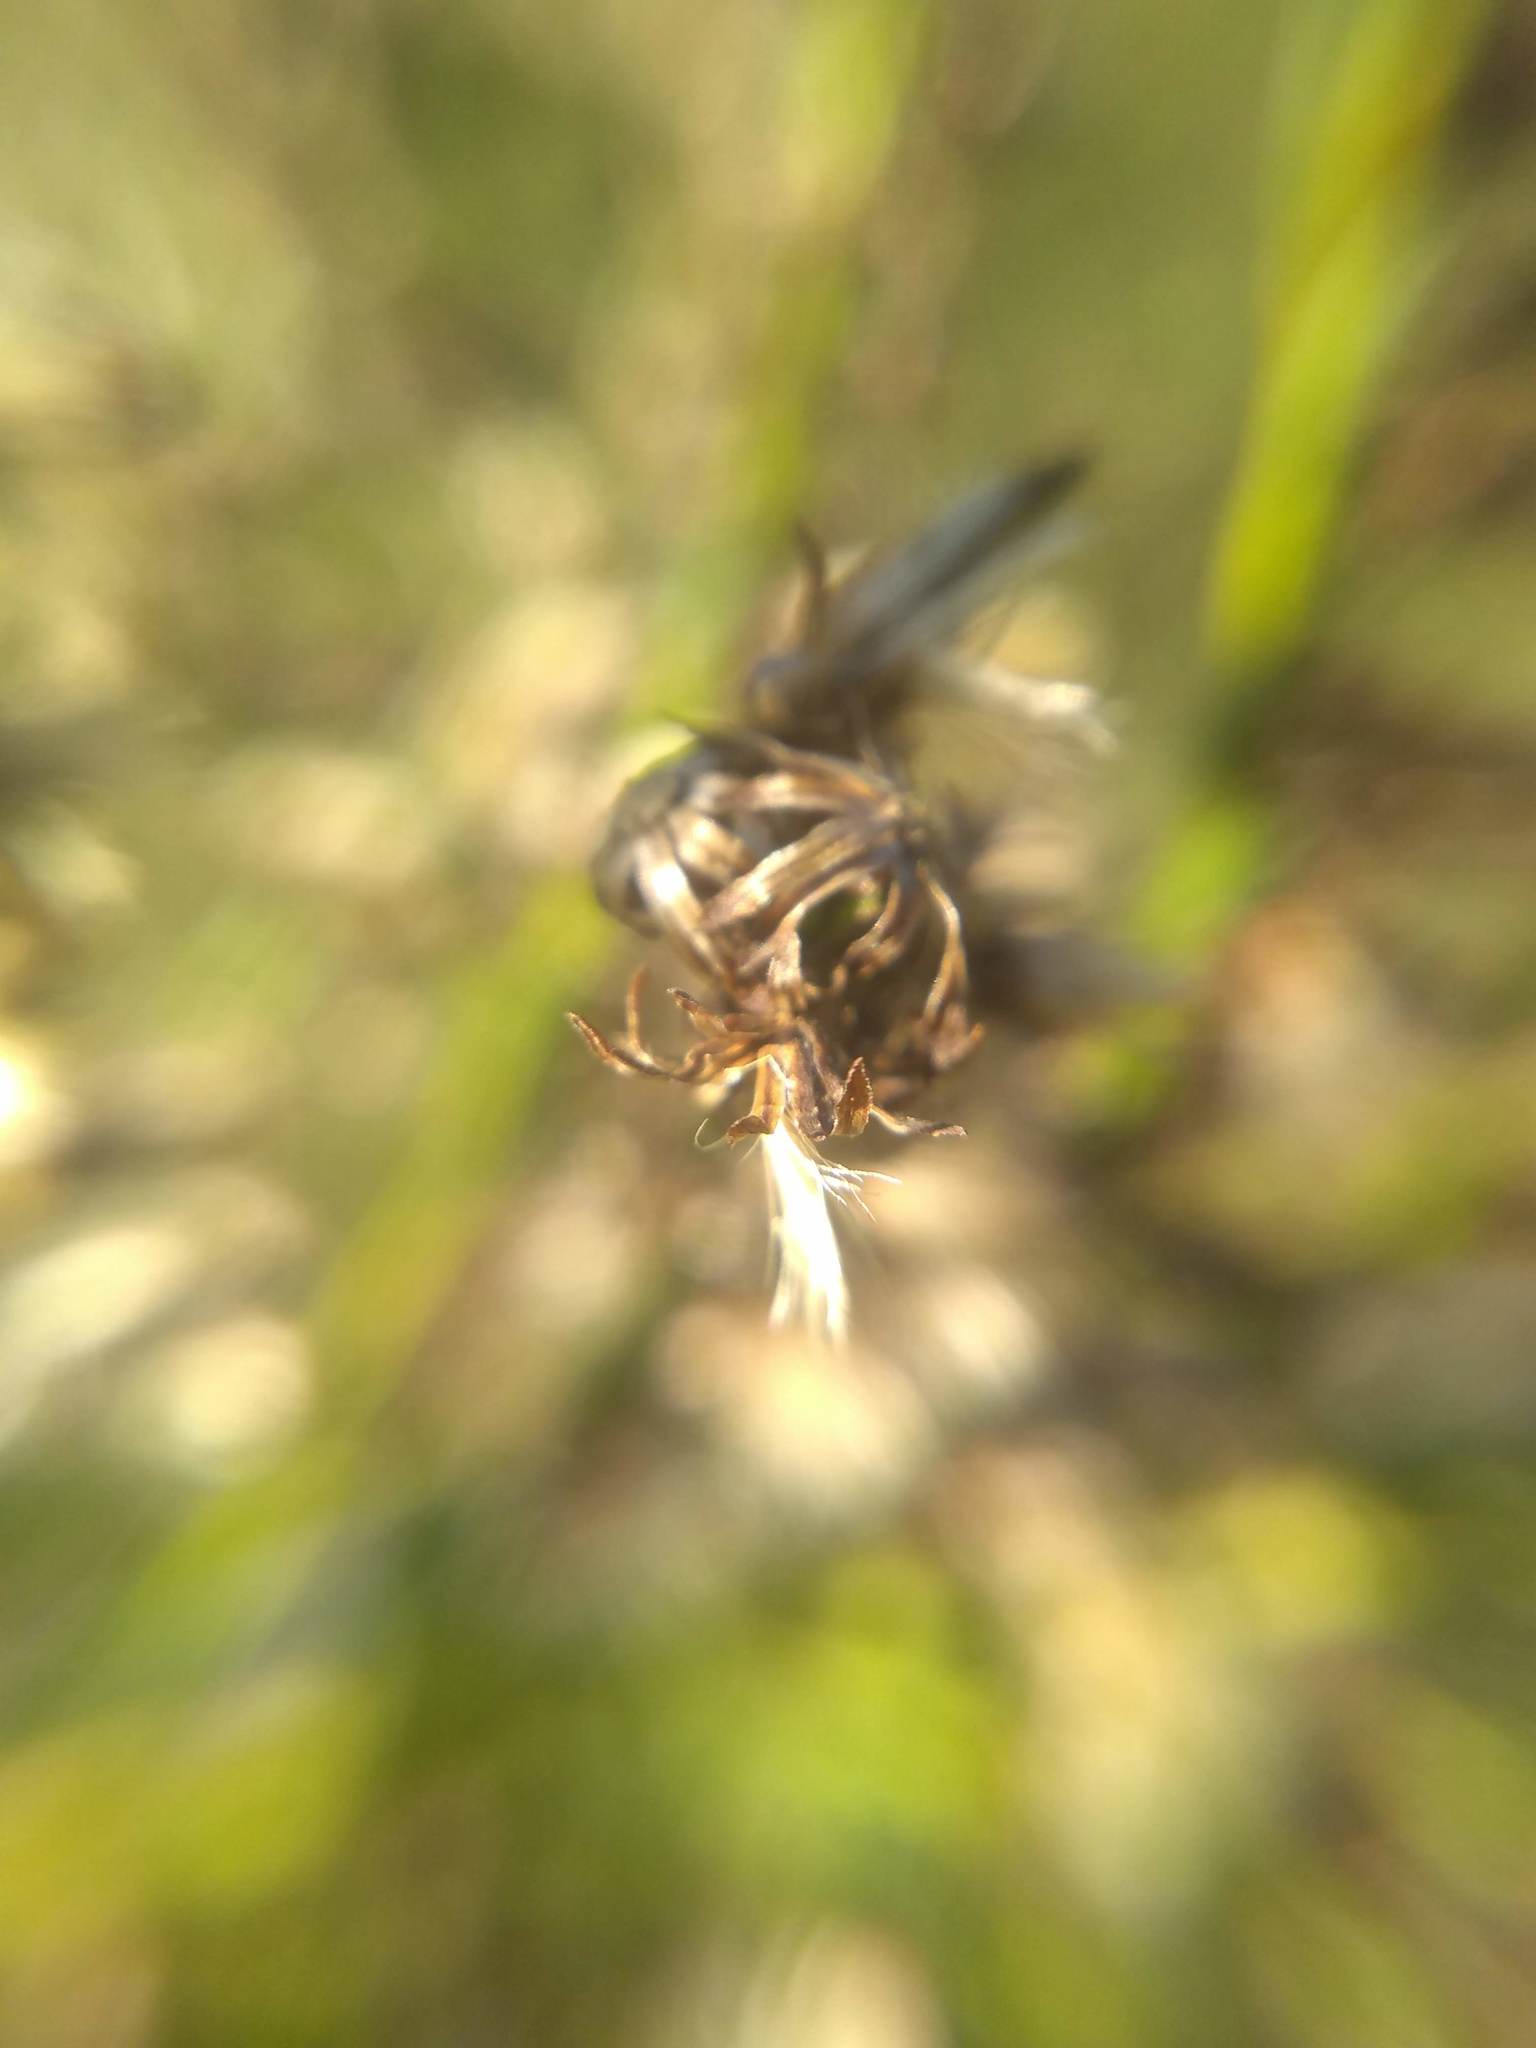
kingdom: Plantae
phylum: Tracheophyta
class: Magnoliopsida
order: Asterales
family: Asteraceae
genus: Solidago
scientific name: Solidago chilensis
